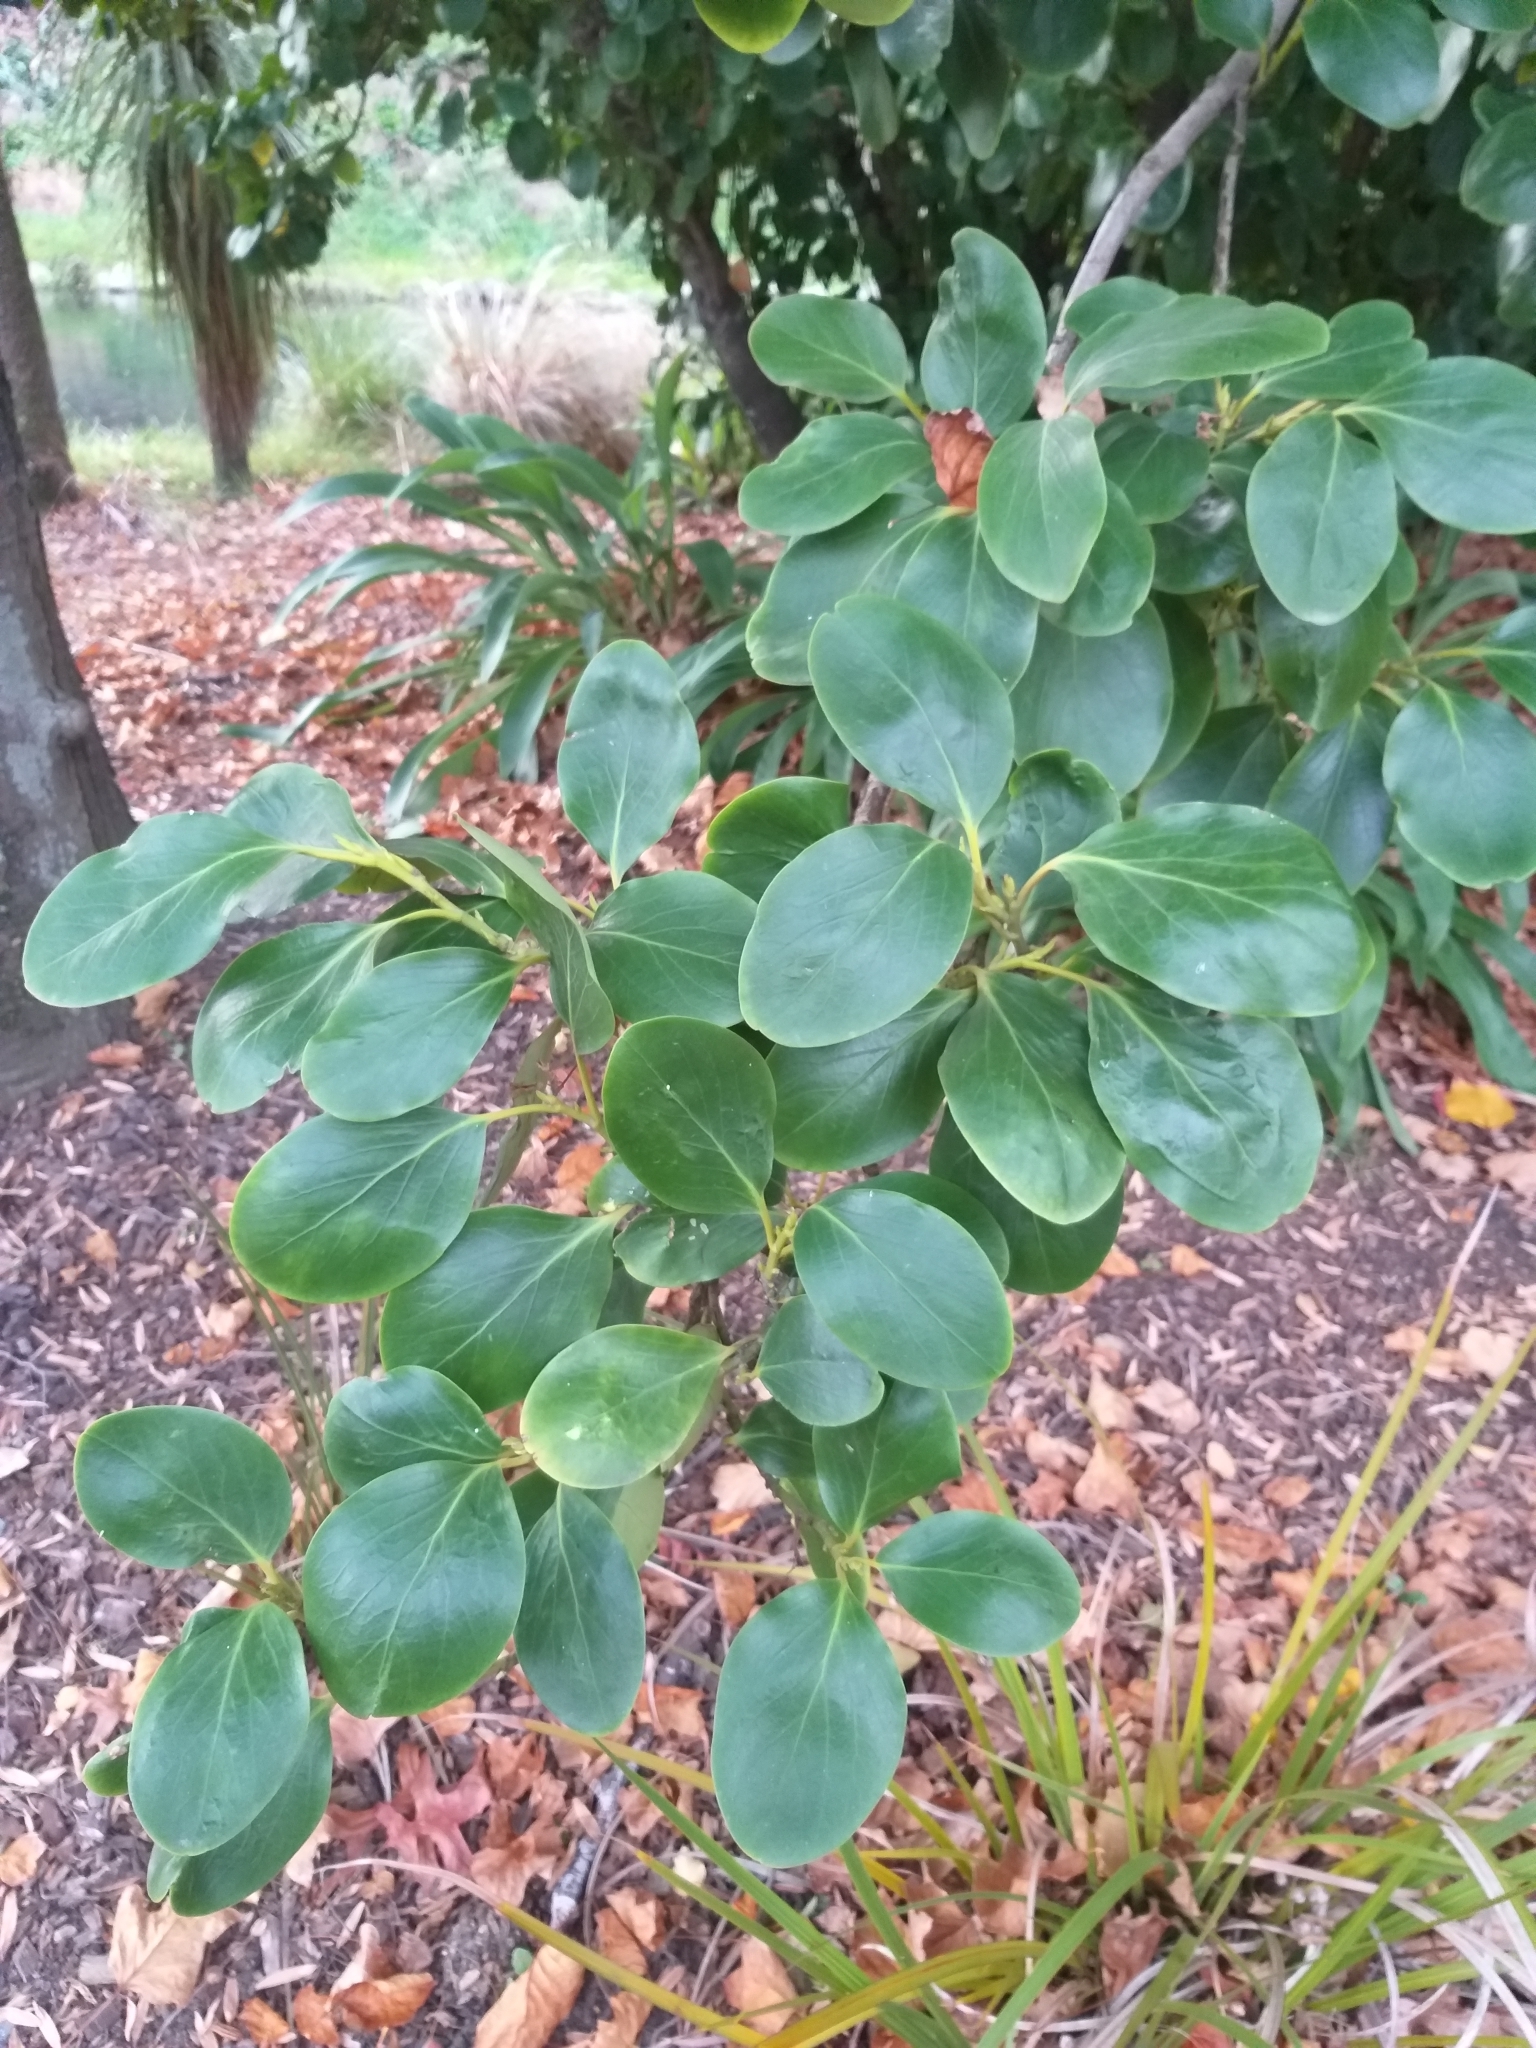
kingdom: Plantae
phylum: Tracheophyta
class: Magnoliopsida
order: Apiales
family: Griseliniaceae
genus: Griselinia
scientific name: Griselinia littoralis
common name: New zealand broadleaf
